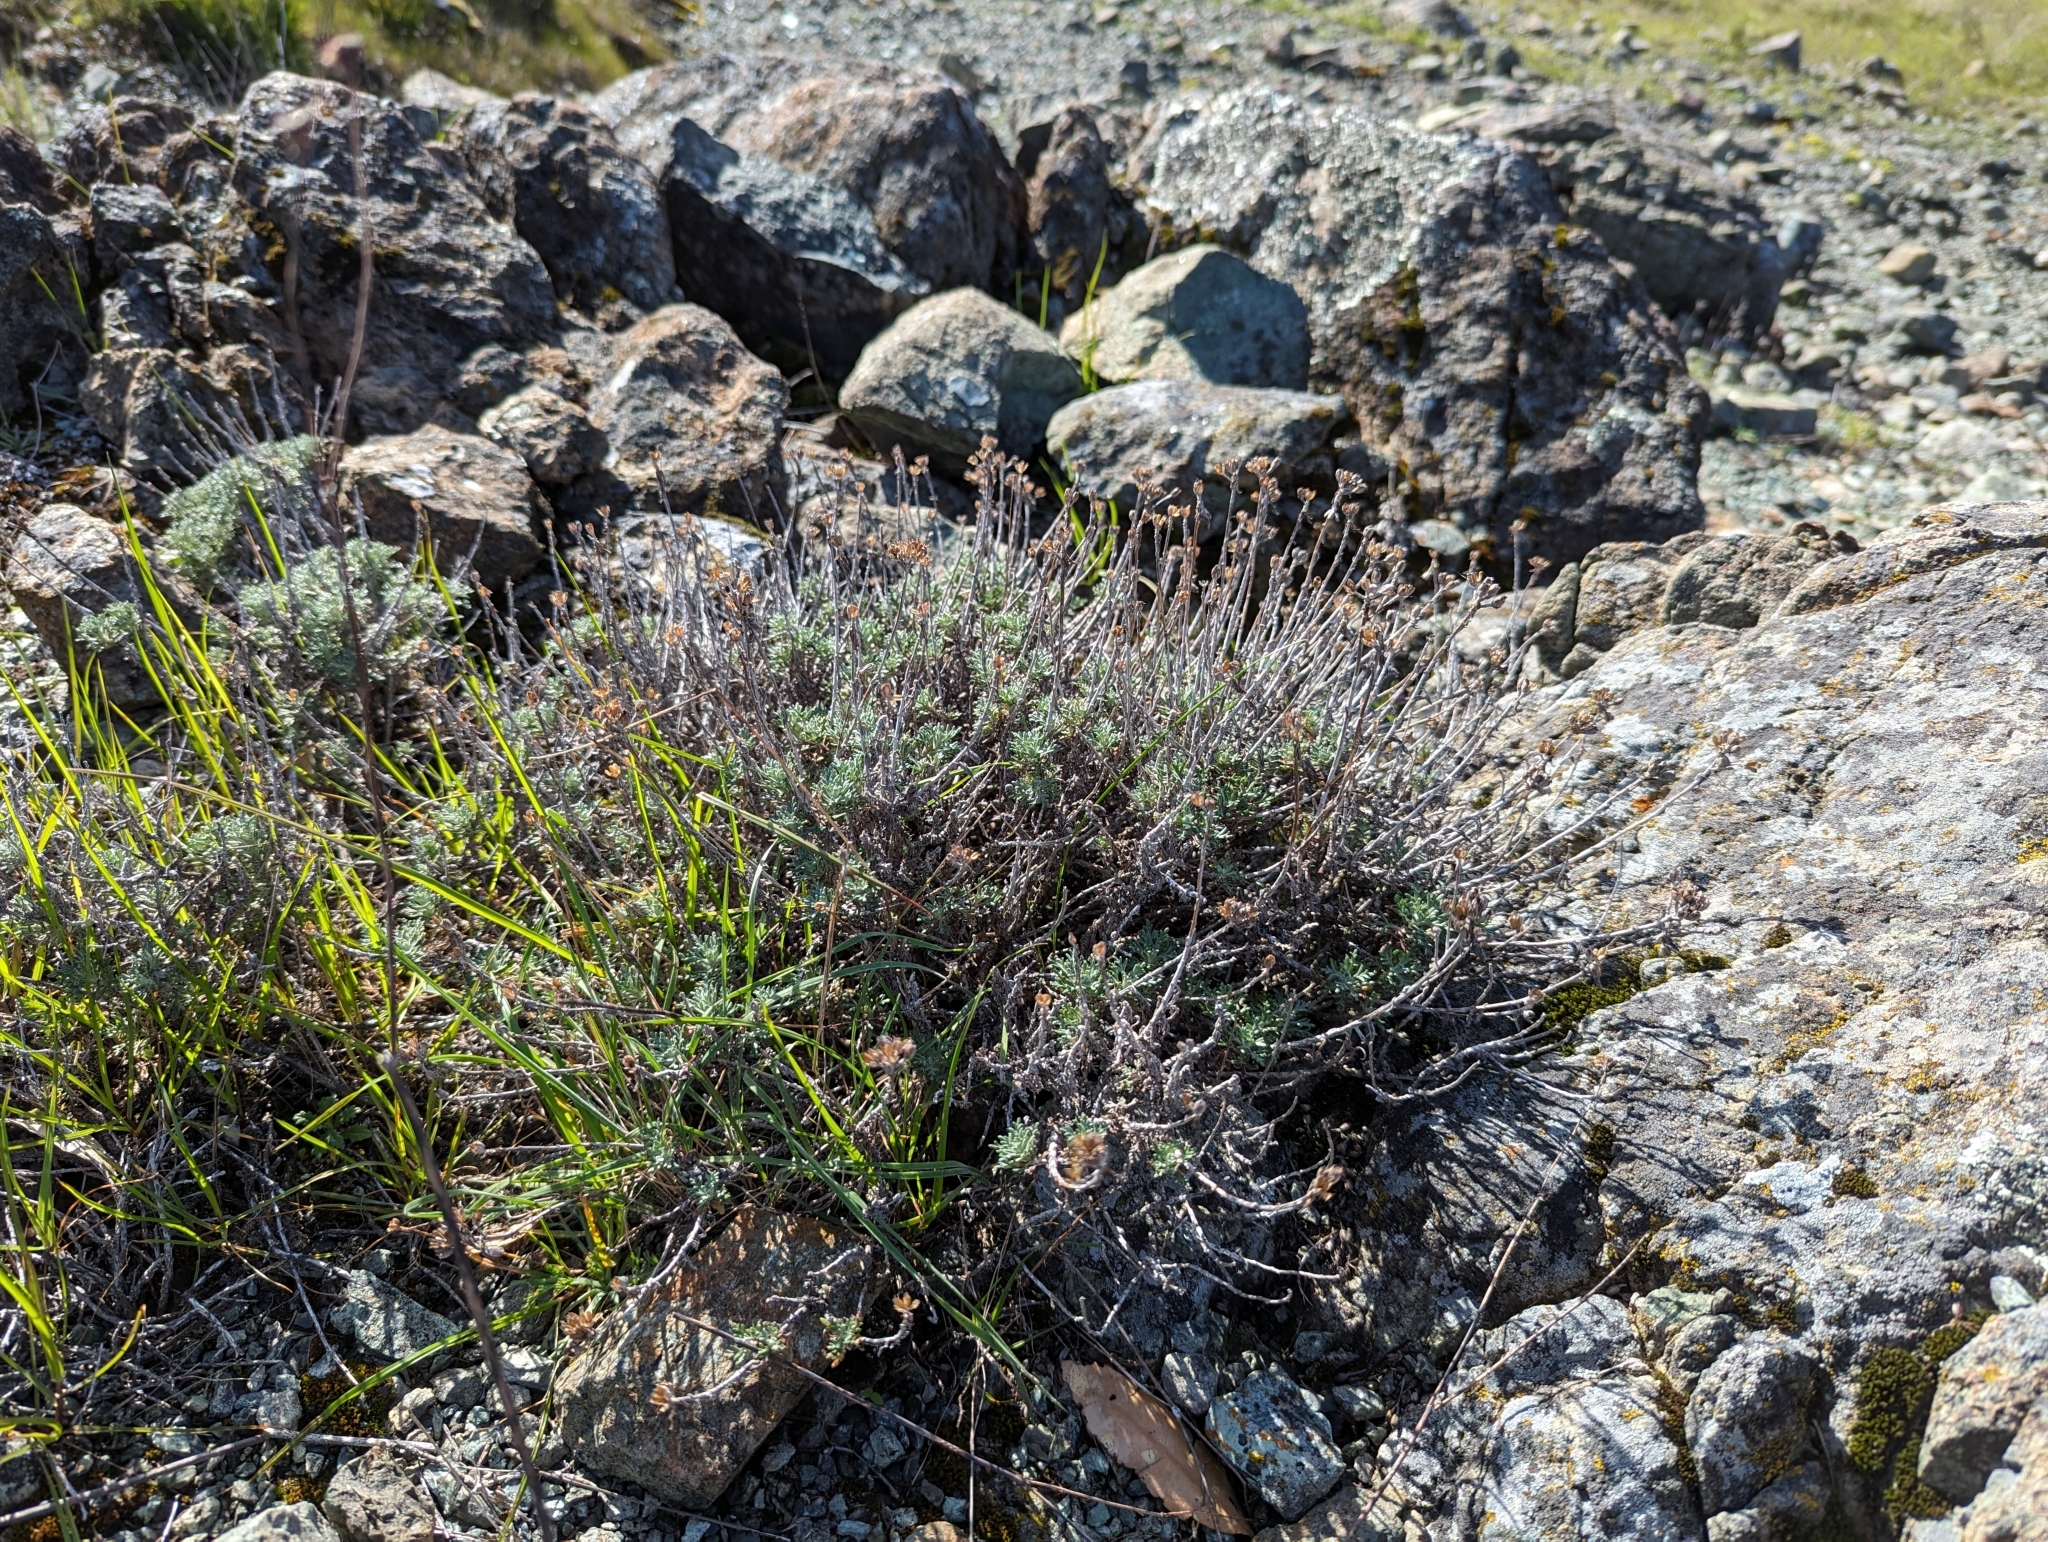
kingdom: Plantae
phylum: Tracheophyta
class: Magnoliopsida
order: Asterales
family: Asteraceae
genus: Eriophyllum
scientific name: Eriophyllum confertiflorum
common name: Golden-yarrow
